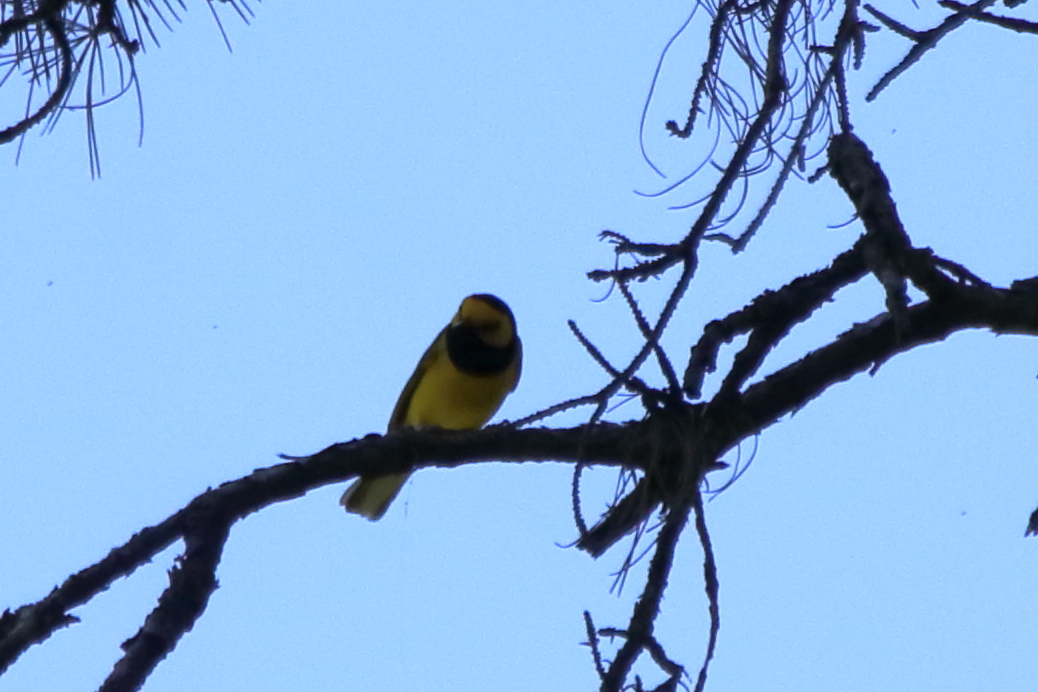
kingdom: Animalia
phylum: Chordata
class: Aves
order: Passeriformes
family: Parulidae
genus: Setophaga
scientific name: Setophaga citrina
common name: Hooded warbler
